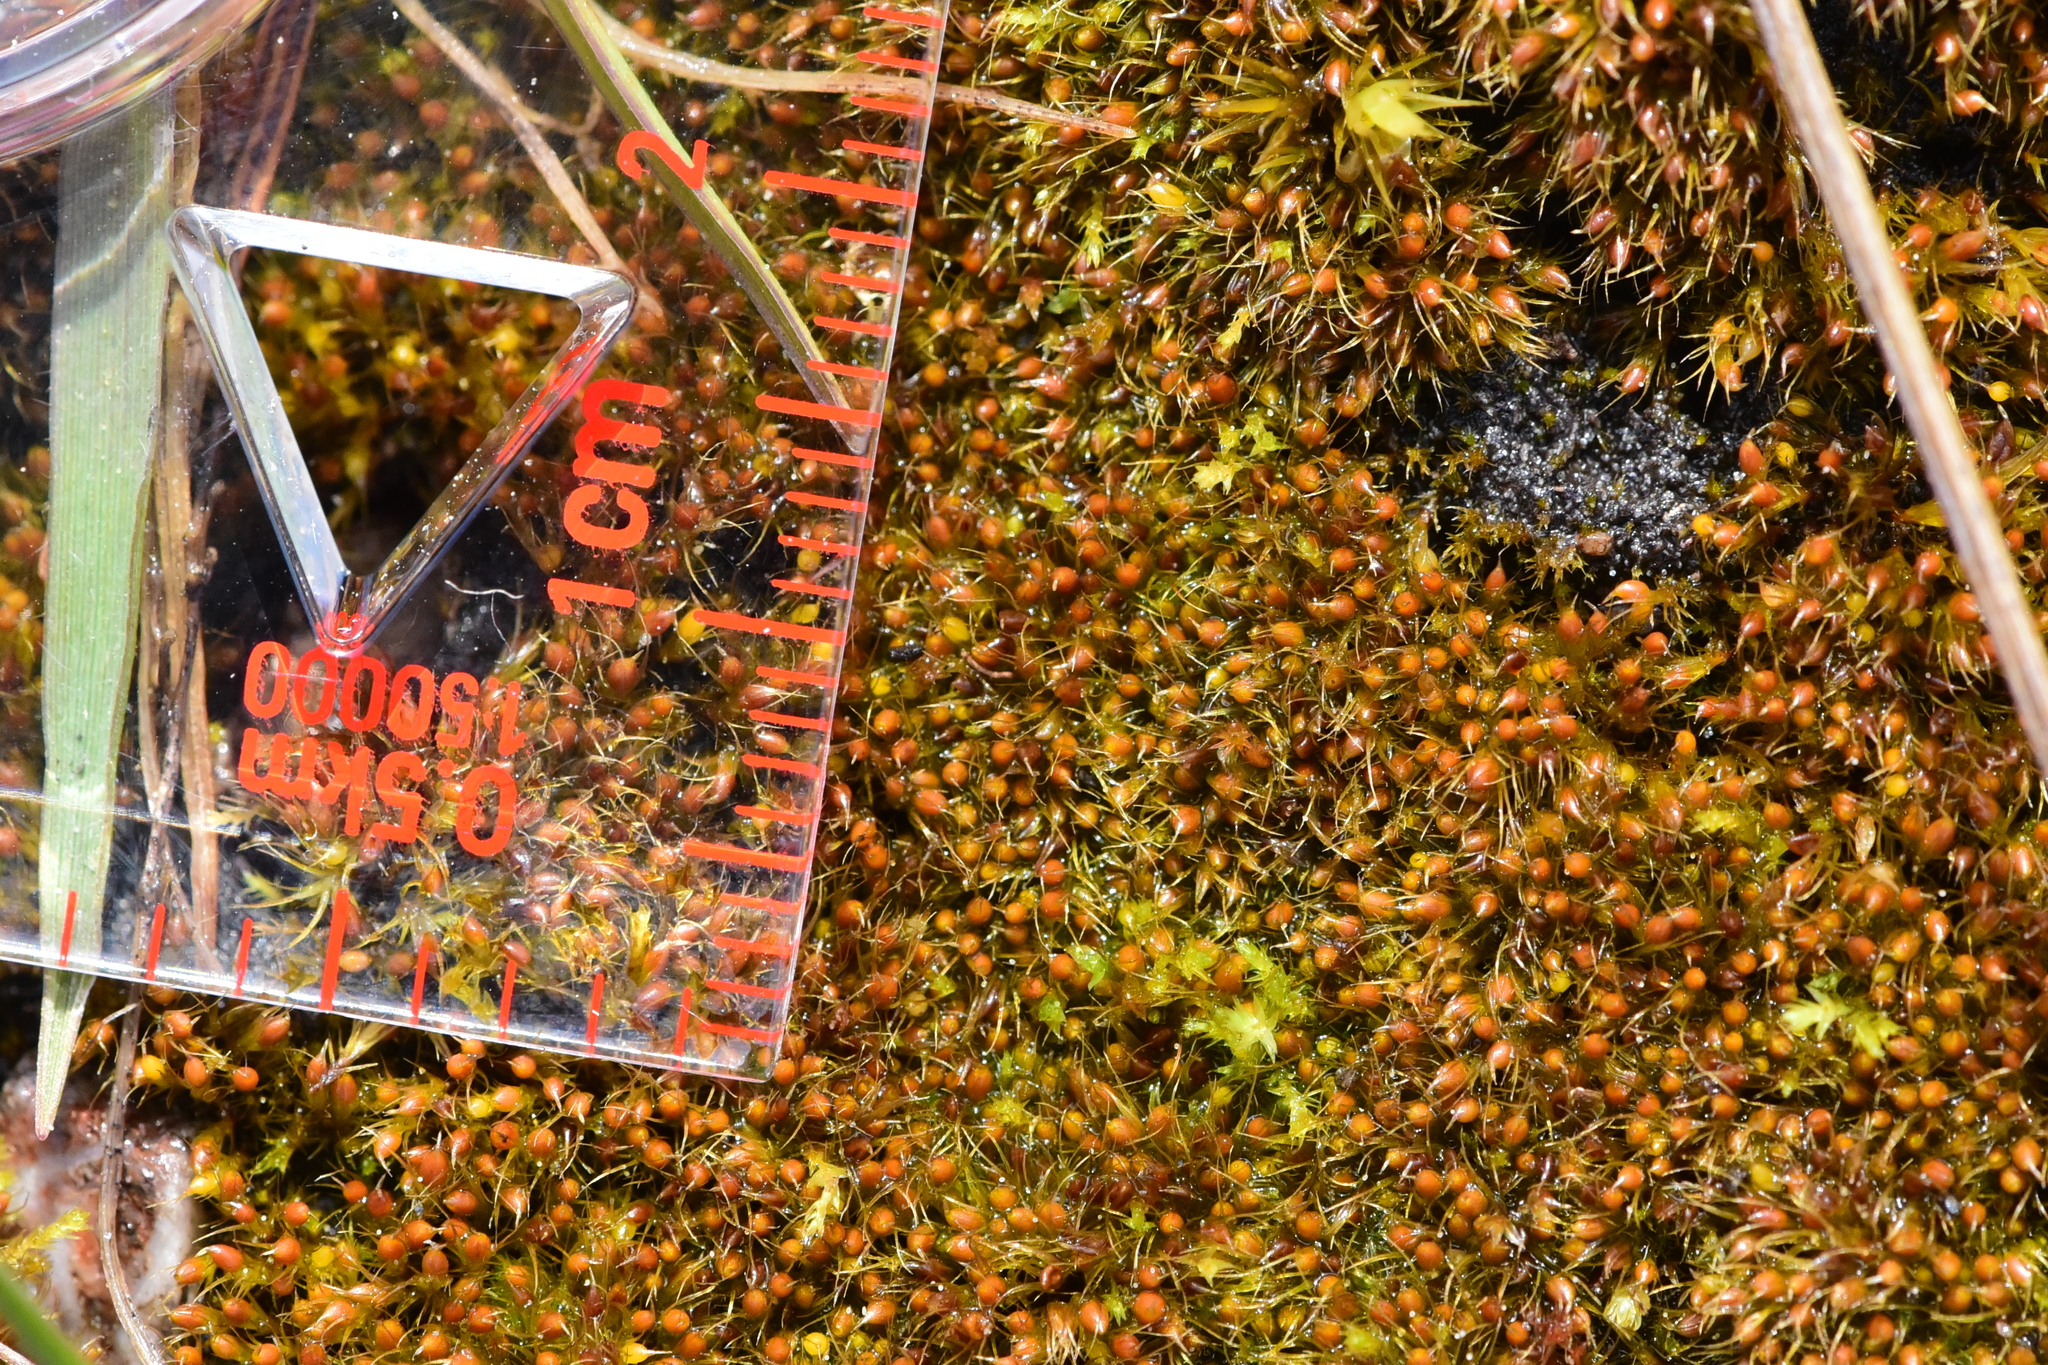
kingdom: Plantae
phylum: Bryophyta
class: Bryopsida
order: Dicranales
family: Ditrichaceae
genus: Pleuridium
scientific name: Pleuridium acuminatum
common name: Taper-leaved earth-moss
